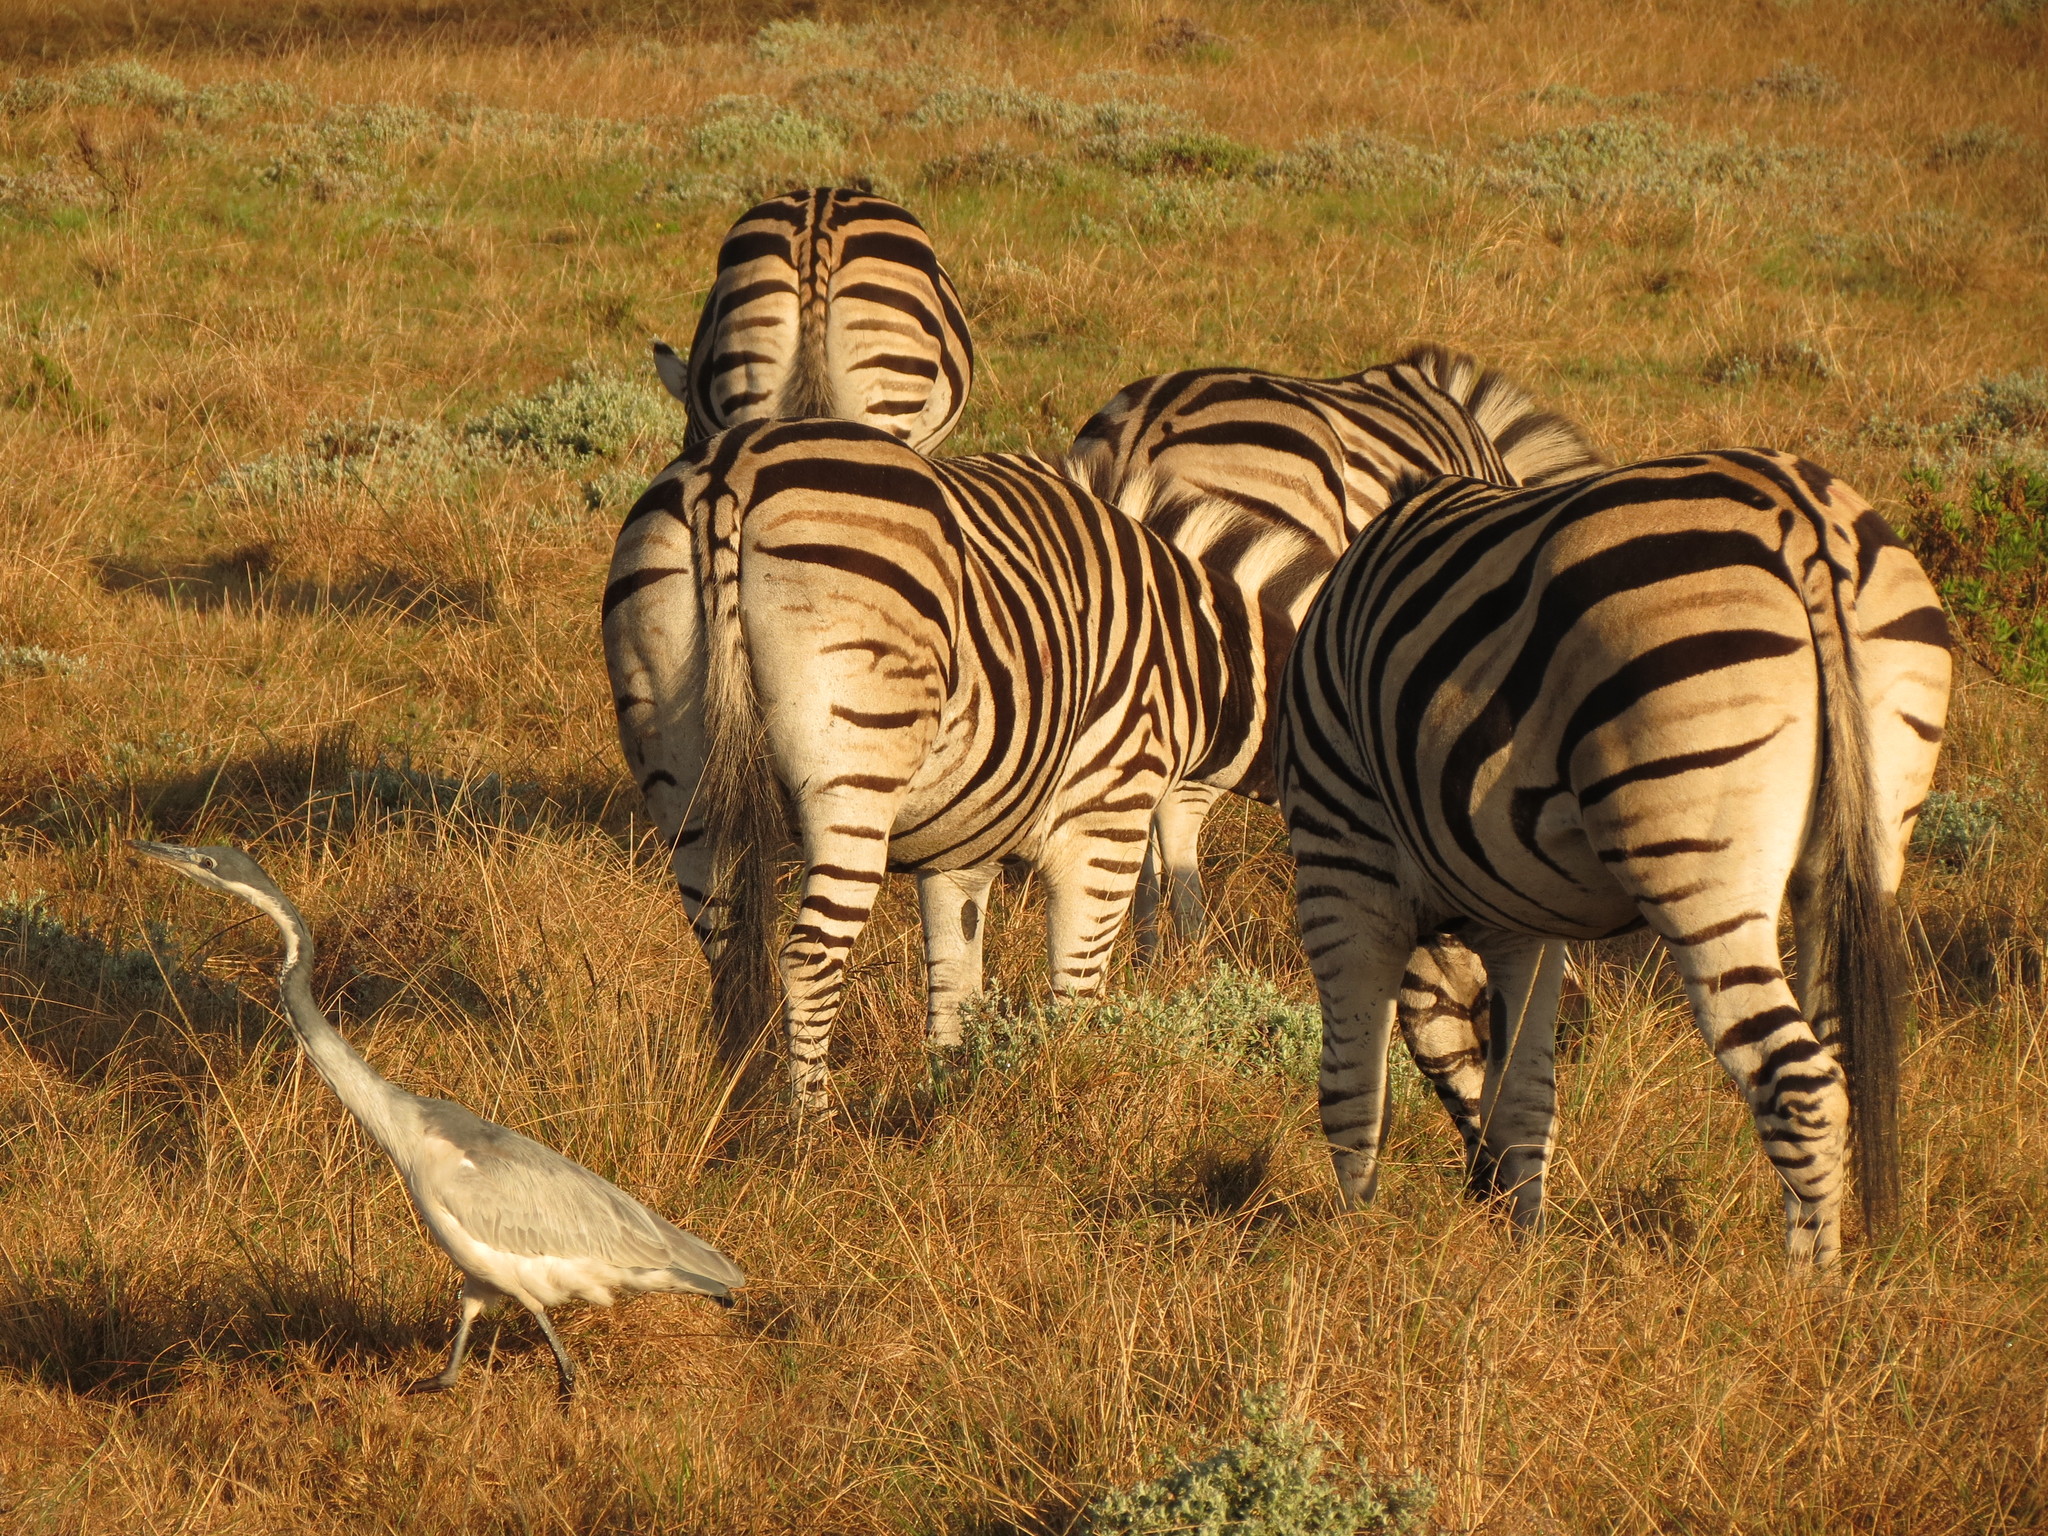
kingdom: Animalia
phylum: Chordata
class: Aves
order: Pelecaniformes
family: Ardeidae
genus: Ardea
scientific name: Ardea melanocephala
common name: Black-headed heron
